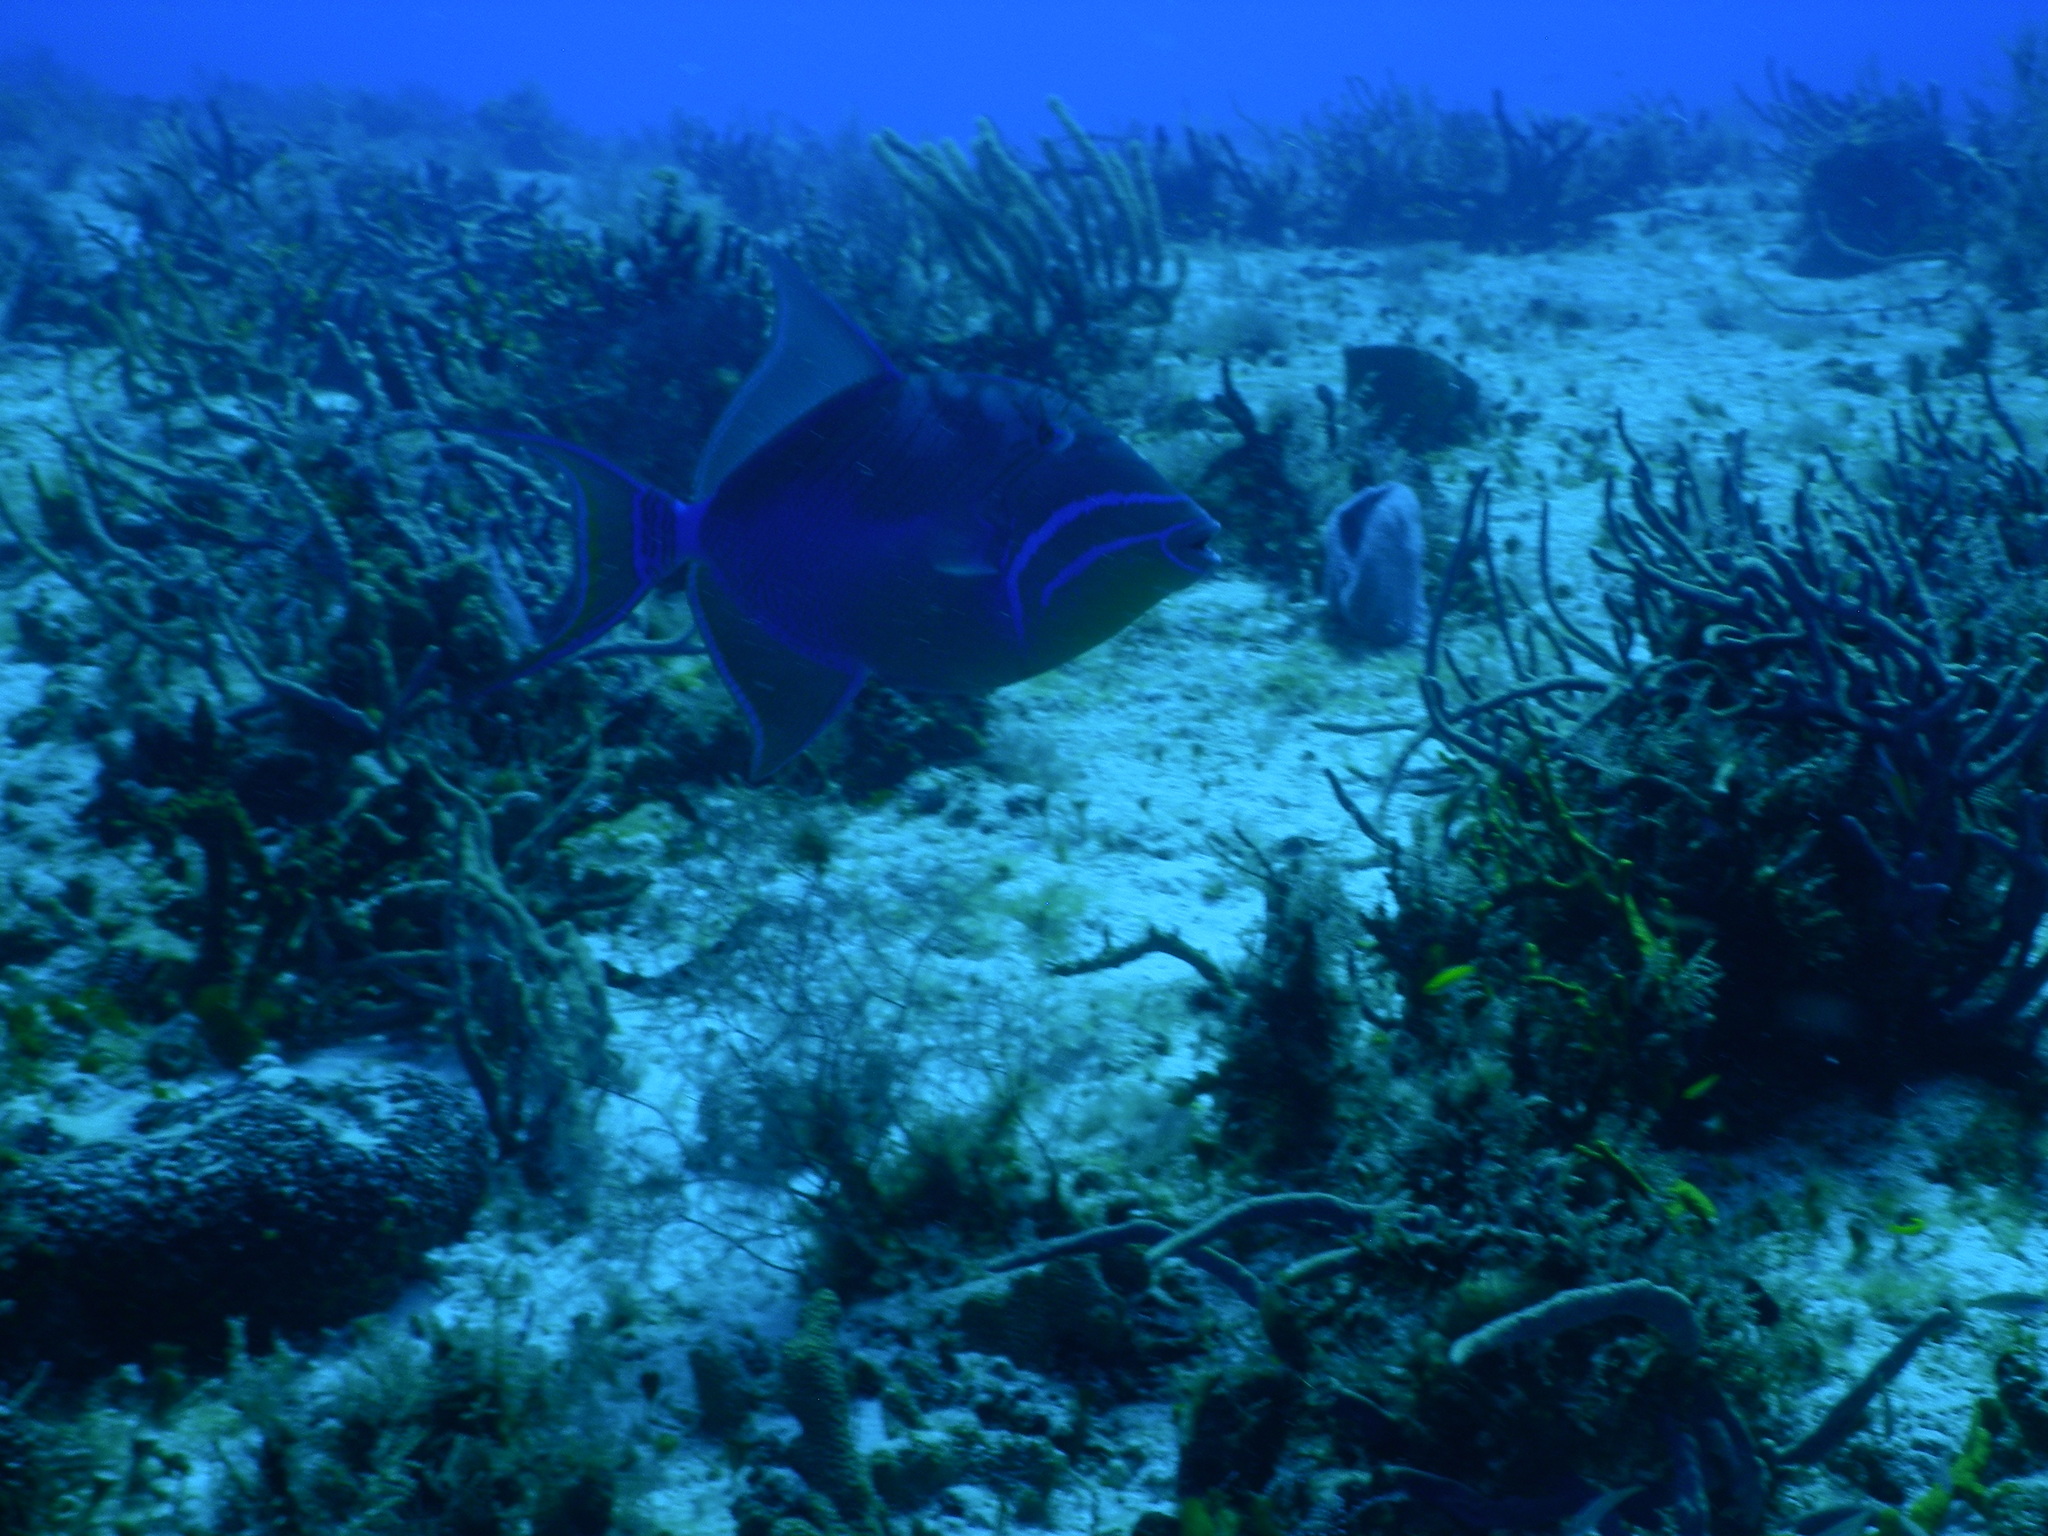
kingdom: Animalia
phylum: Chordata
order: Tetraodontiformes
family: Balistidae
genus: Balistes
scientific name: Balistes vetula
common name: Queen triggerfish
